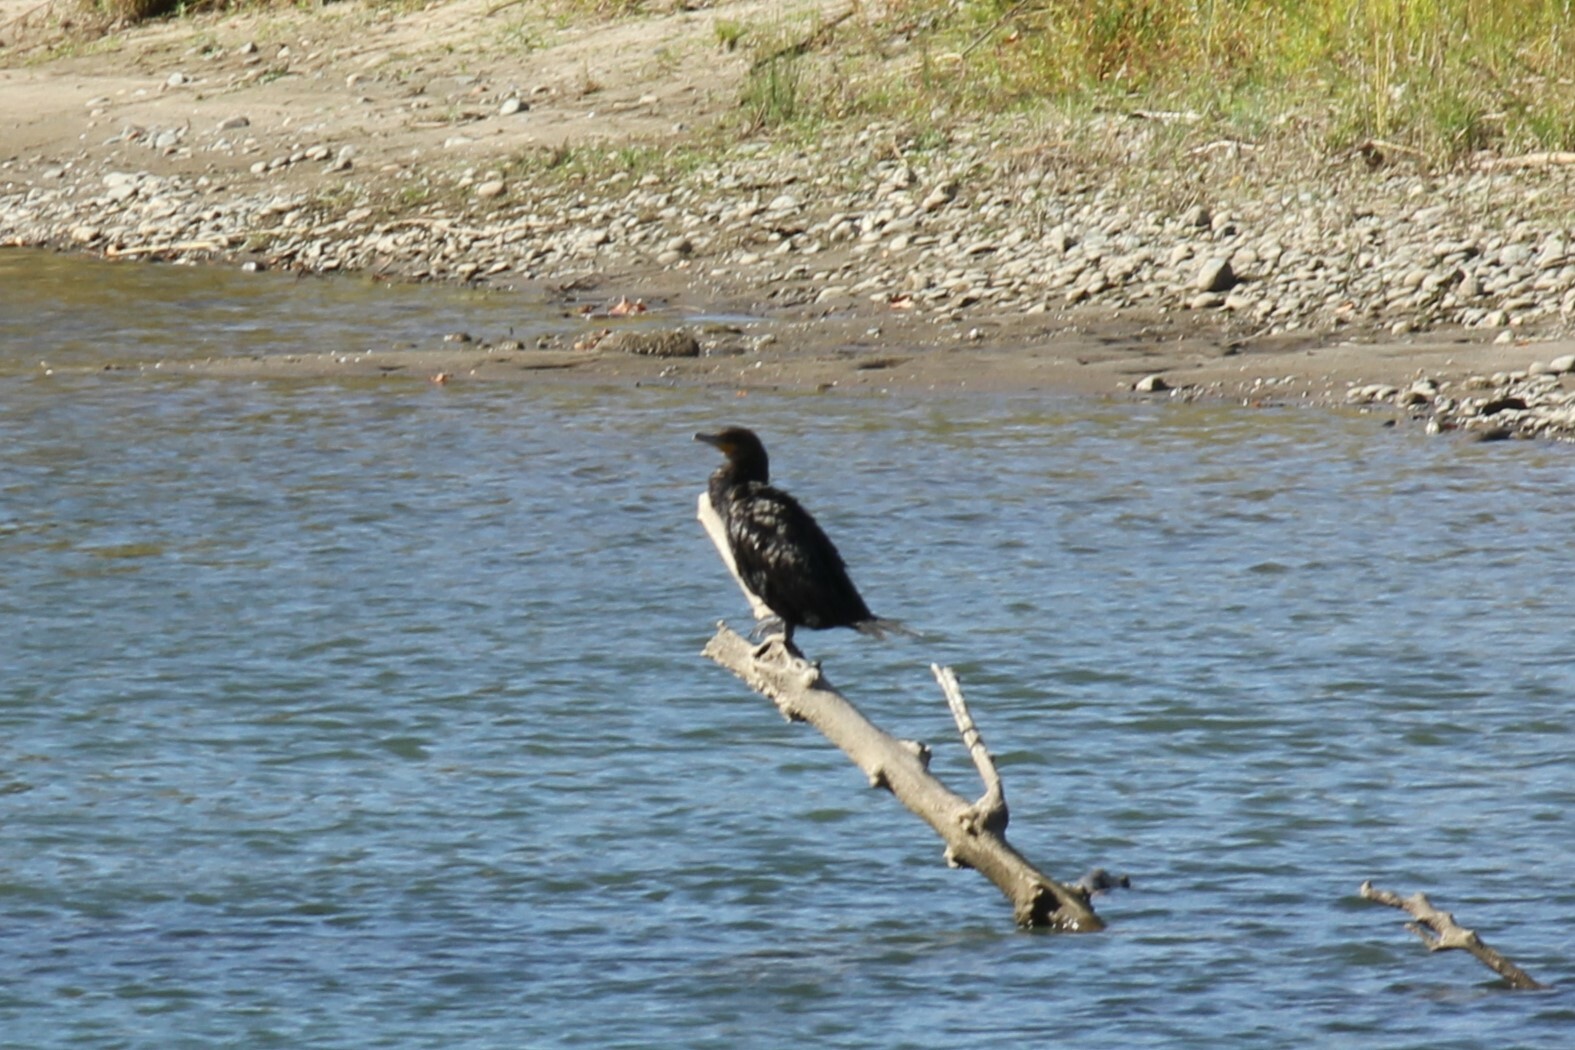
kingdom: Animalia
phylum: Chordata
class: Aves
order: Suliformes
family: Phalacrocoracidae
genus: Phalacrocorax
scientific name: Phalacrocorax auritus
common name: Double-crested cormorant
